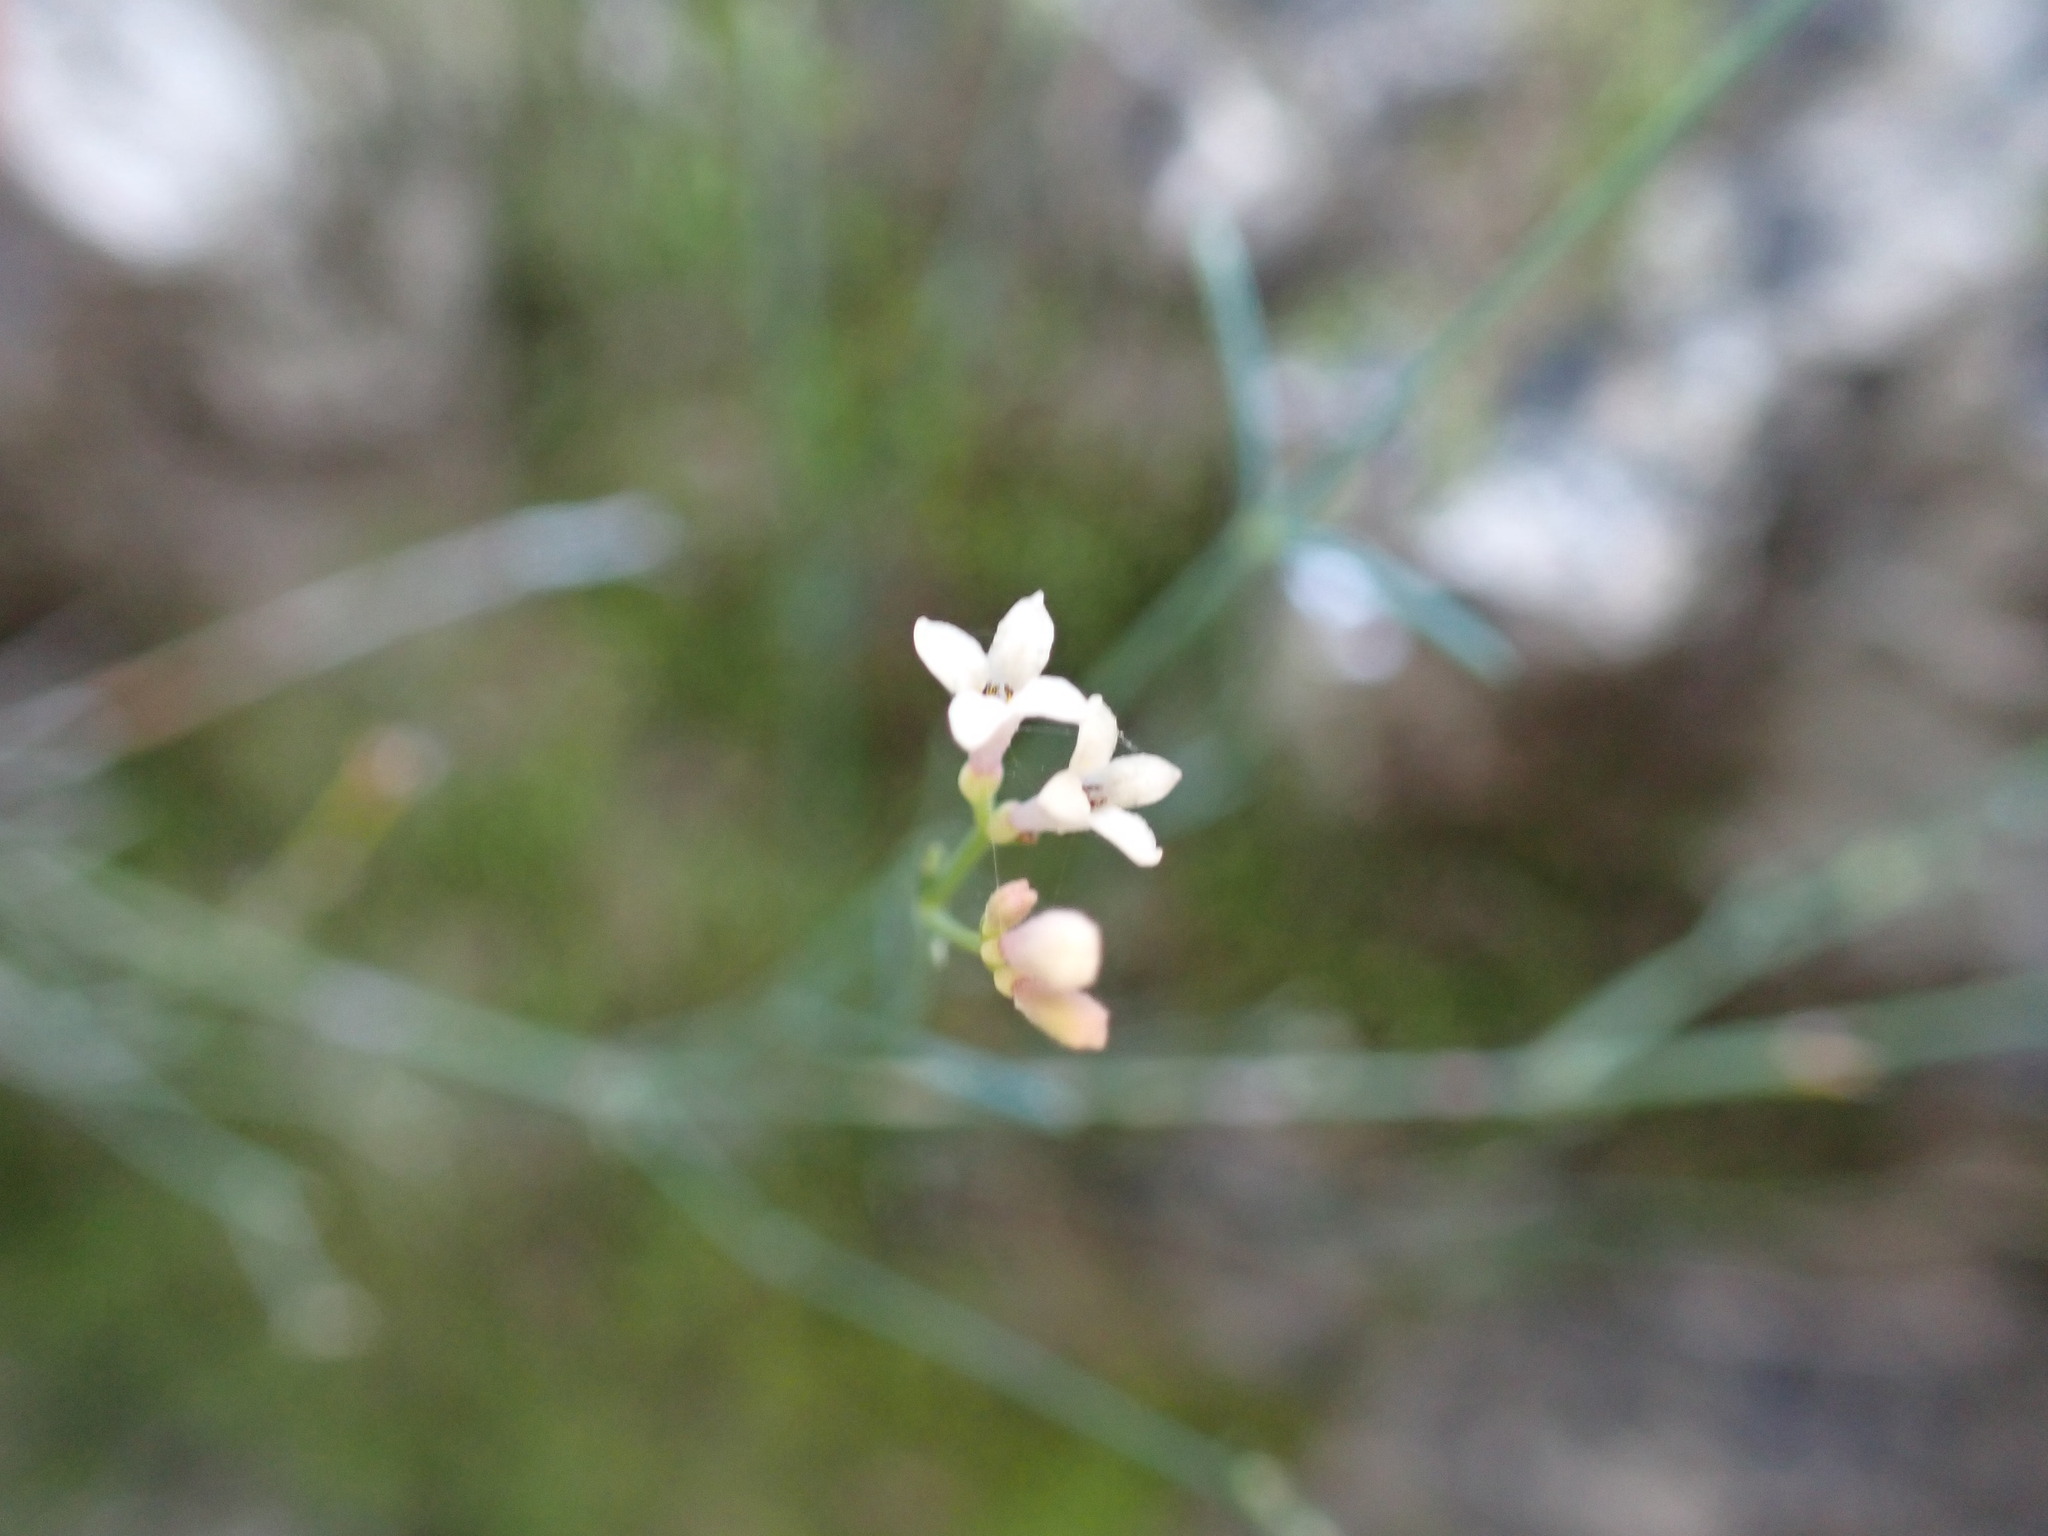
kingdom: Plantae
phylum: Tracheophyta
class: Magnoliopsida
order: Gentianales
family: Rubiaceae
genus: Cynanchica
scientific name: Cynanchica pyrenaica
